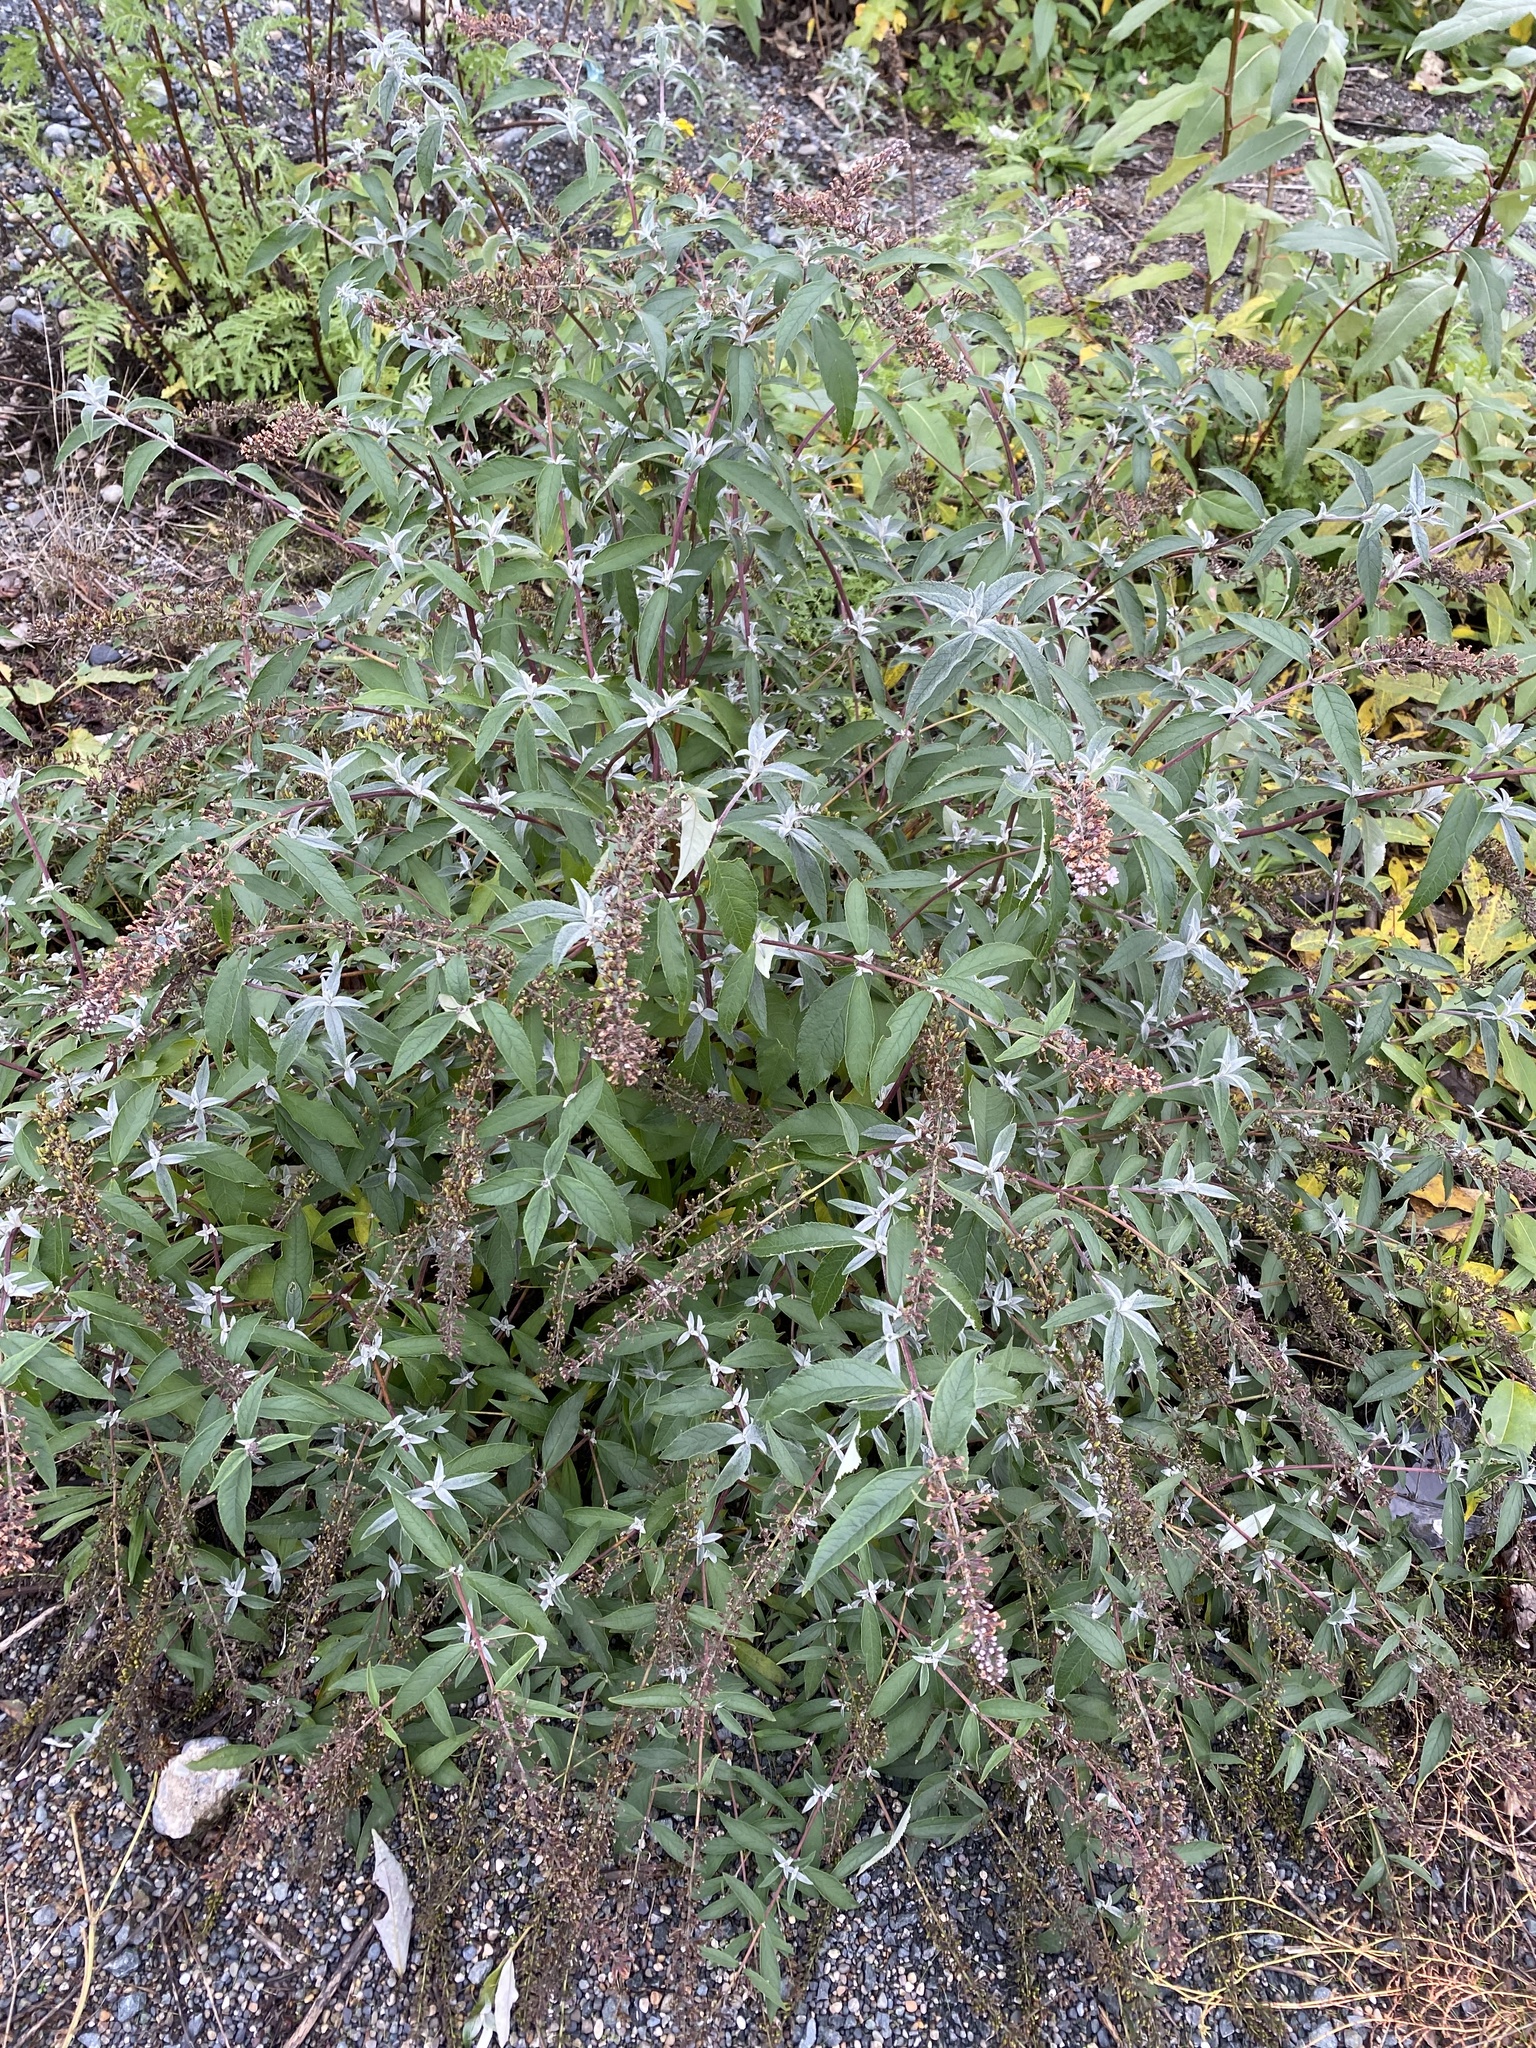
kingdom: Plantae
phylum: Tracheophyta
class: Magnoliopsida
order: Lamiales
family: Scrophulariaceae
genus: Buddleja
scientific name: Buddleja davidii
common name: Butterfly-bush
